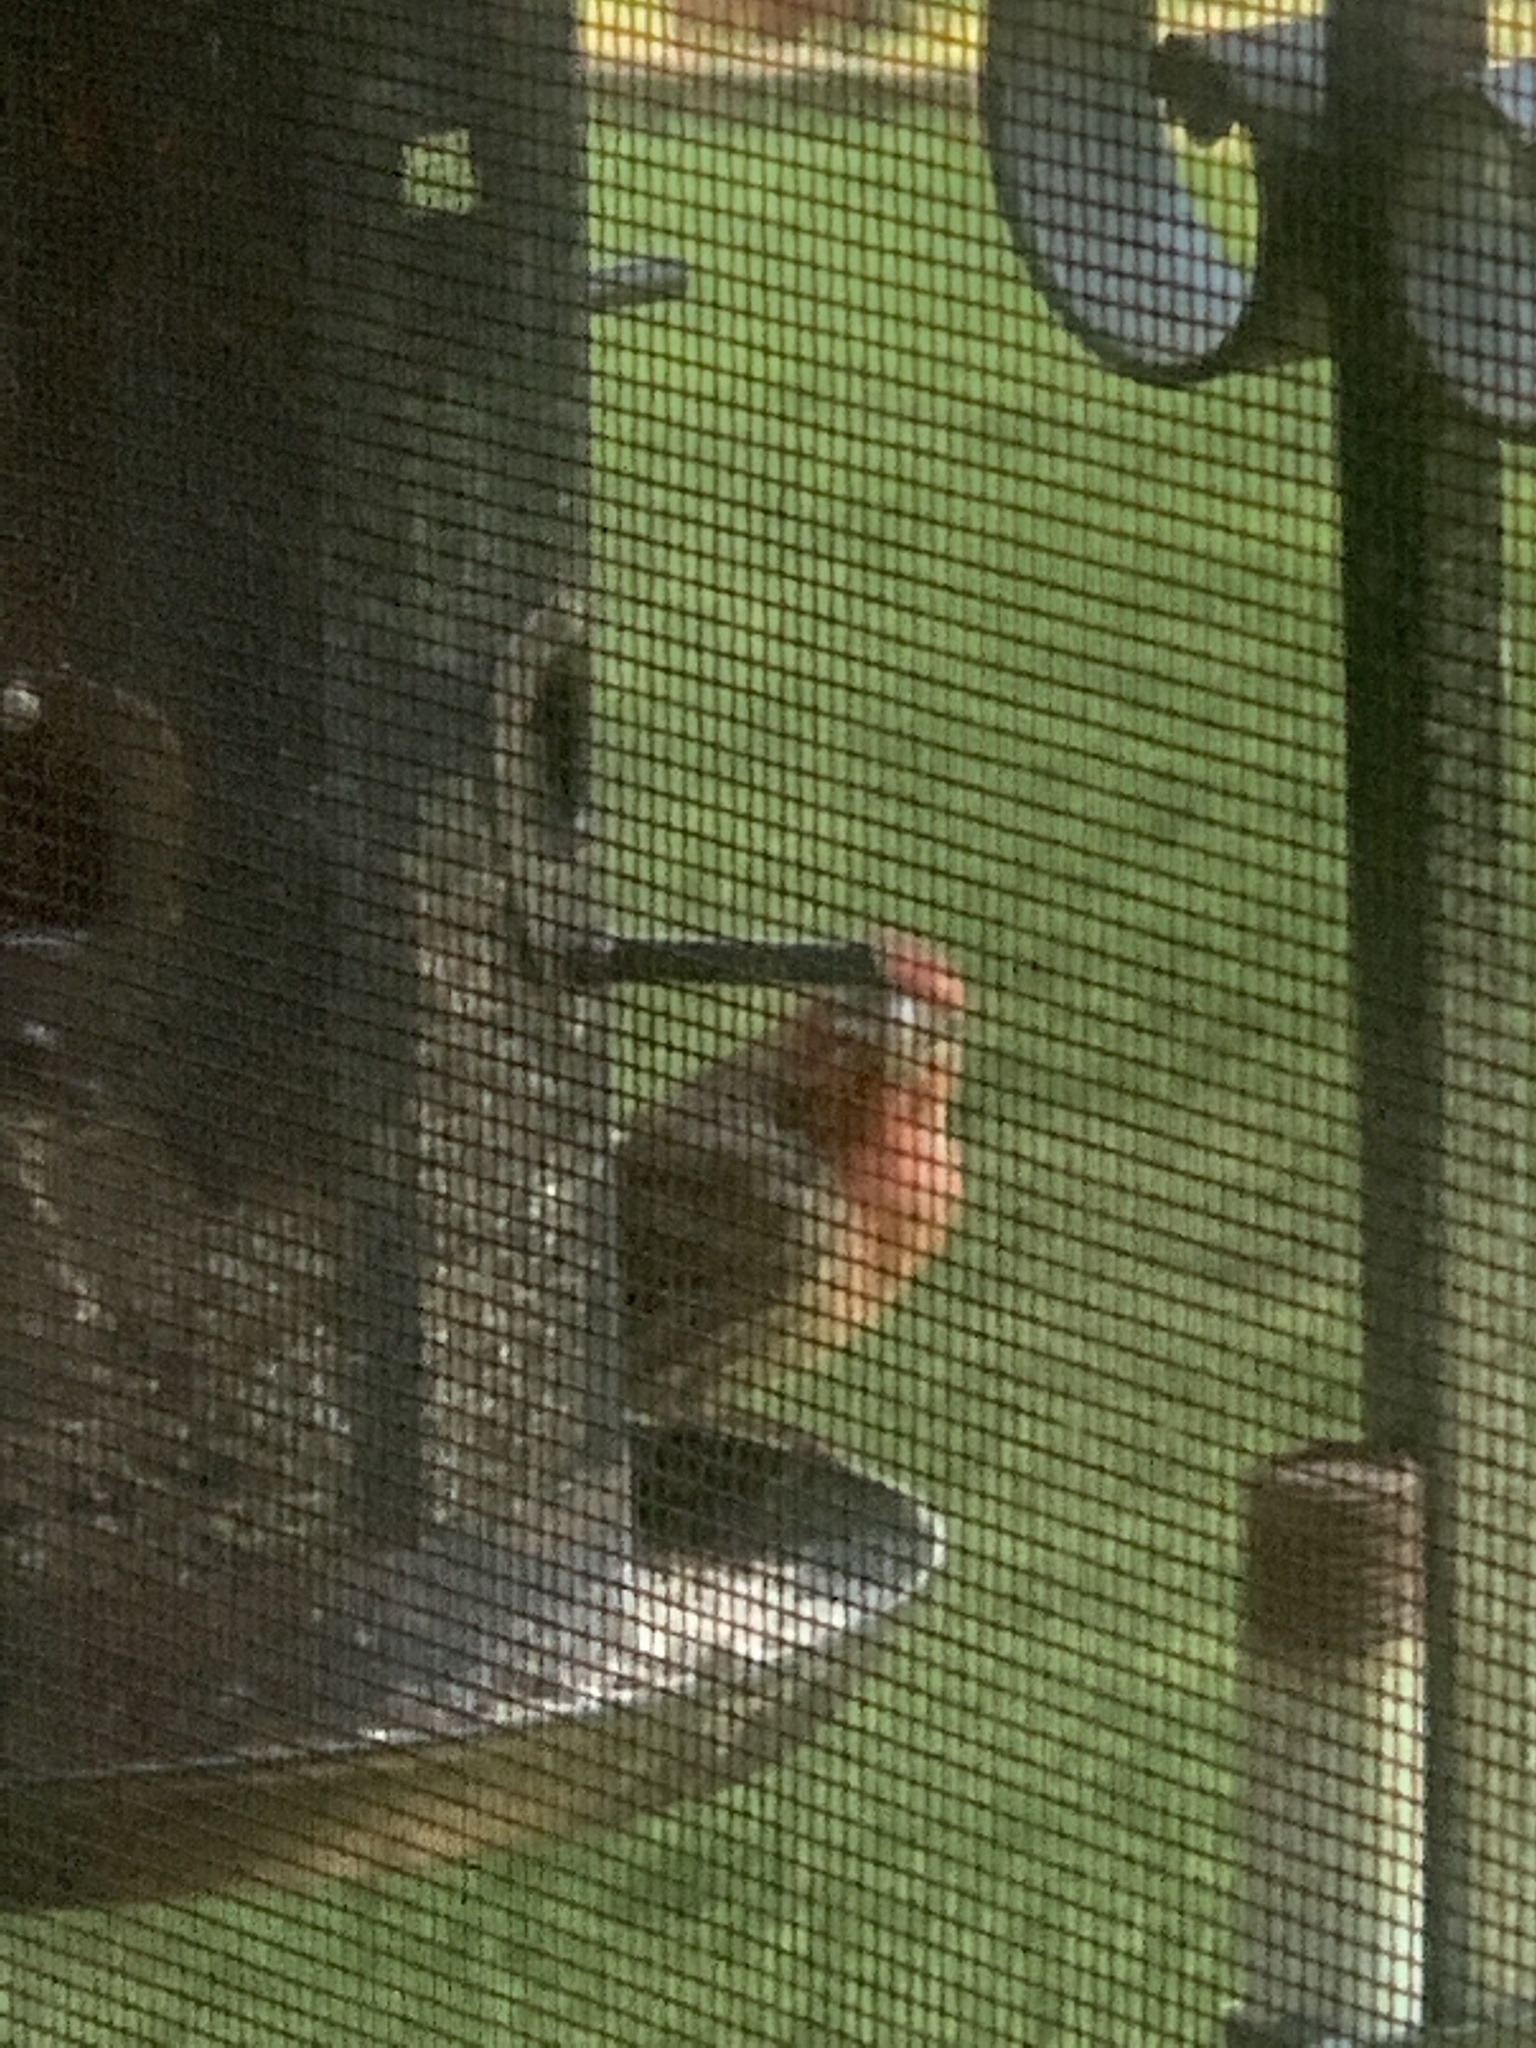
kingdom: Animalia
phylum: Chordata
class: Aves
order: Passeriformes
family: Fringillidae
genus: Haemorhous
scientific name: Haemorhous mexicanus
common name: House finch
